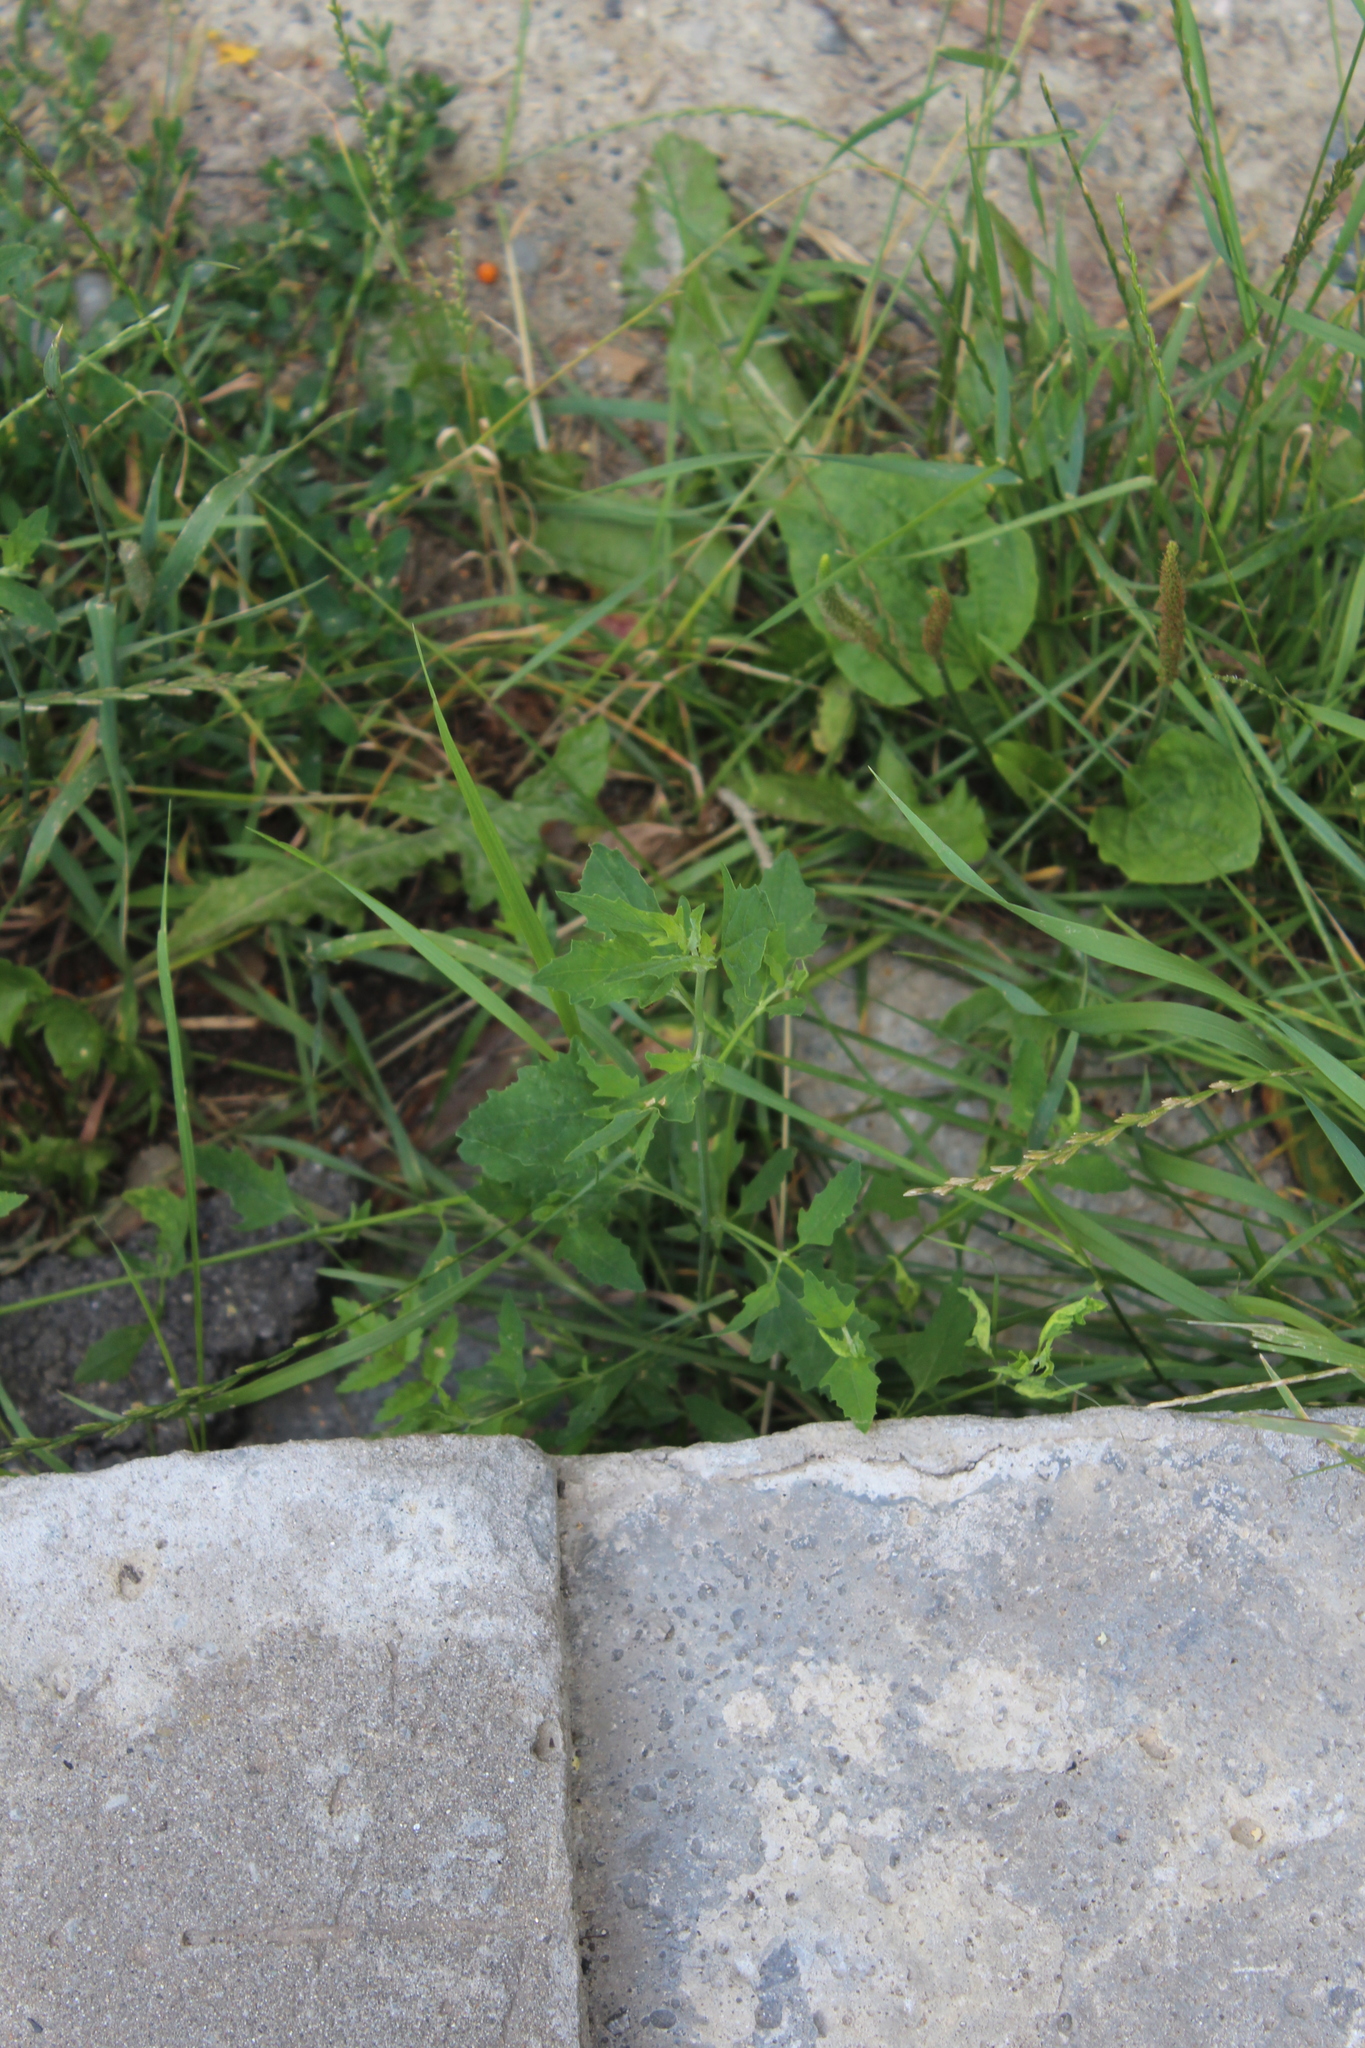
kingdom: Plantae
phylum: Tracheophyta
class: Magnoliopsida
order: Caryophyllales
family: Amaranthaceae
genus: Atriplex
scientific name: Atriplex patula
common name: Common orache
